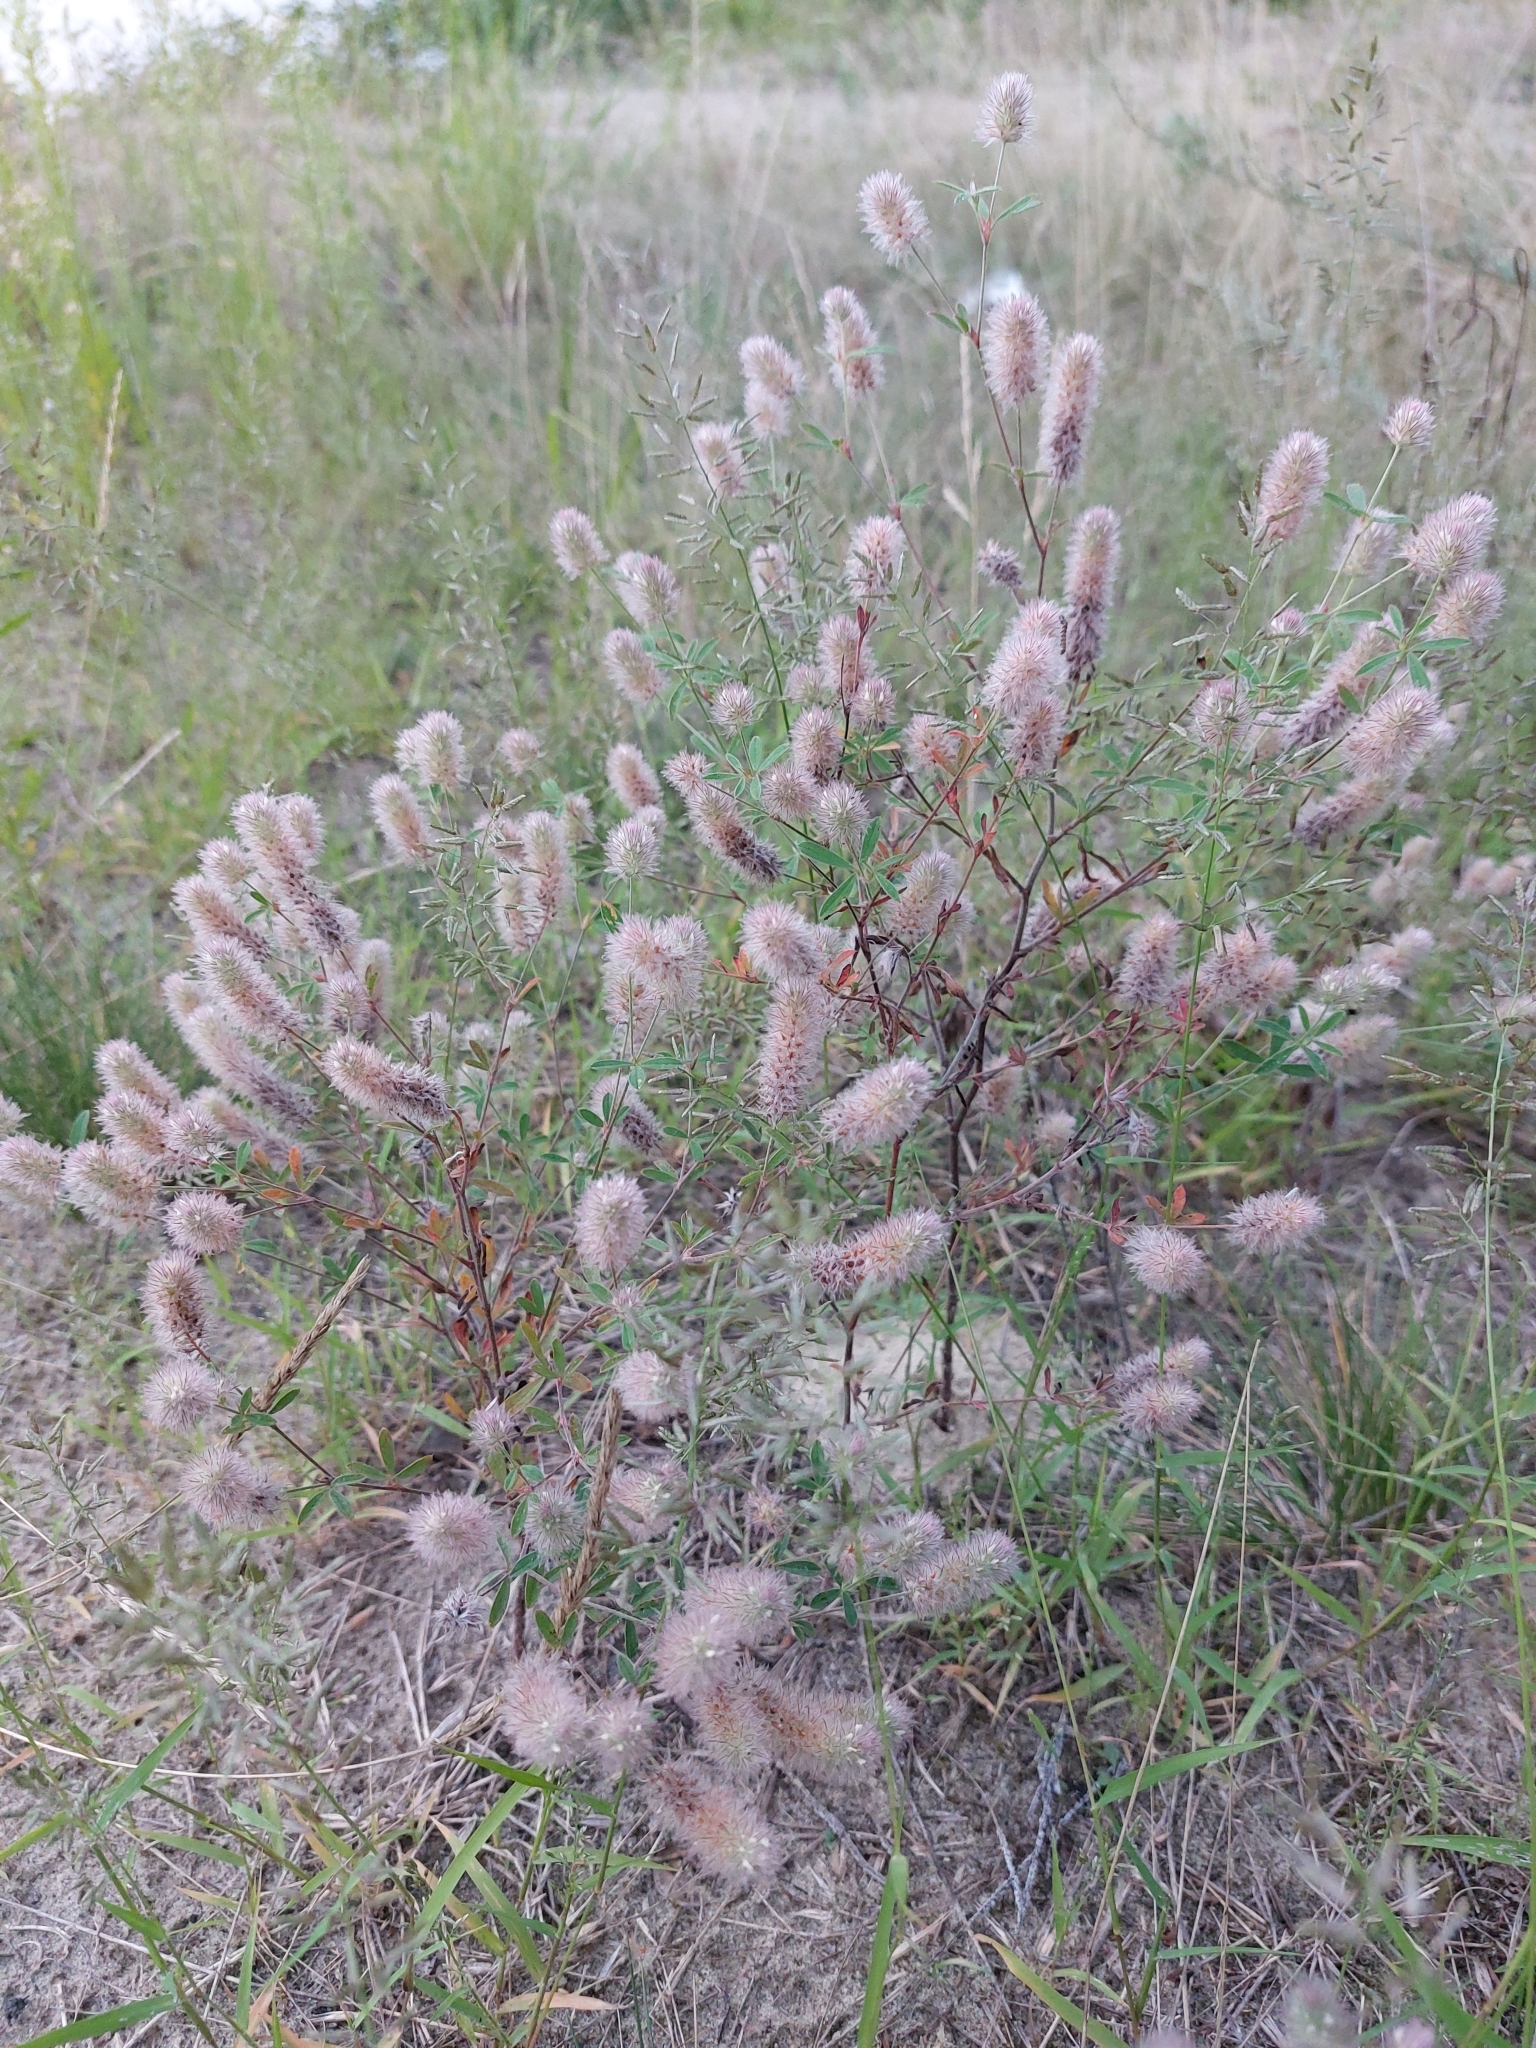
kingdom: Plantae
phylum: Tracheophyta
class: Magnoliopsida
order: Fabales
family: Fabaceae
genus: Trifolium
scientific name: Trifolium arvense
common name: Hare's-foot clover
